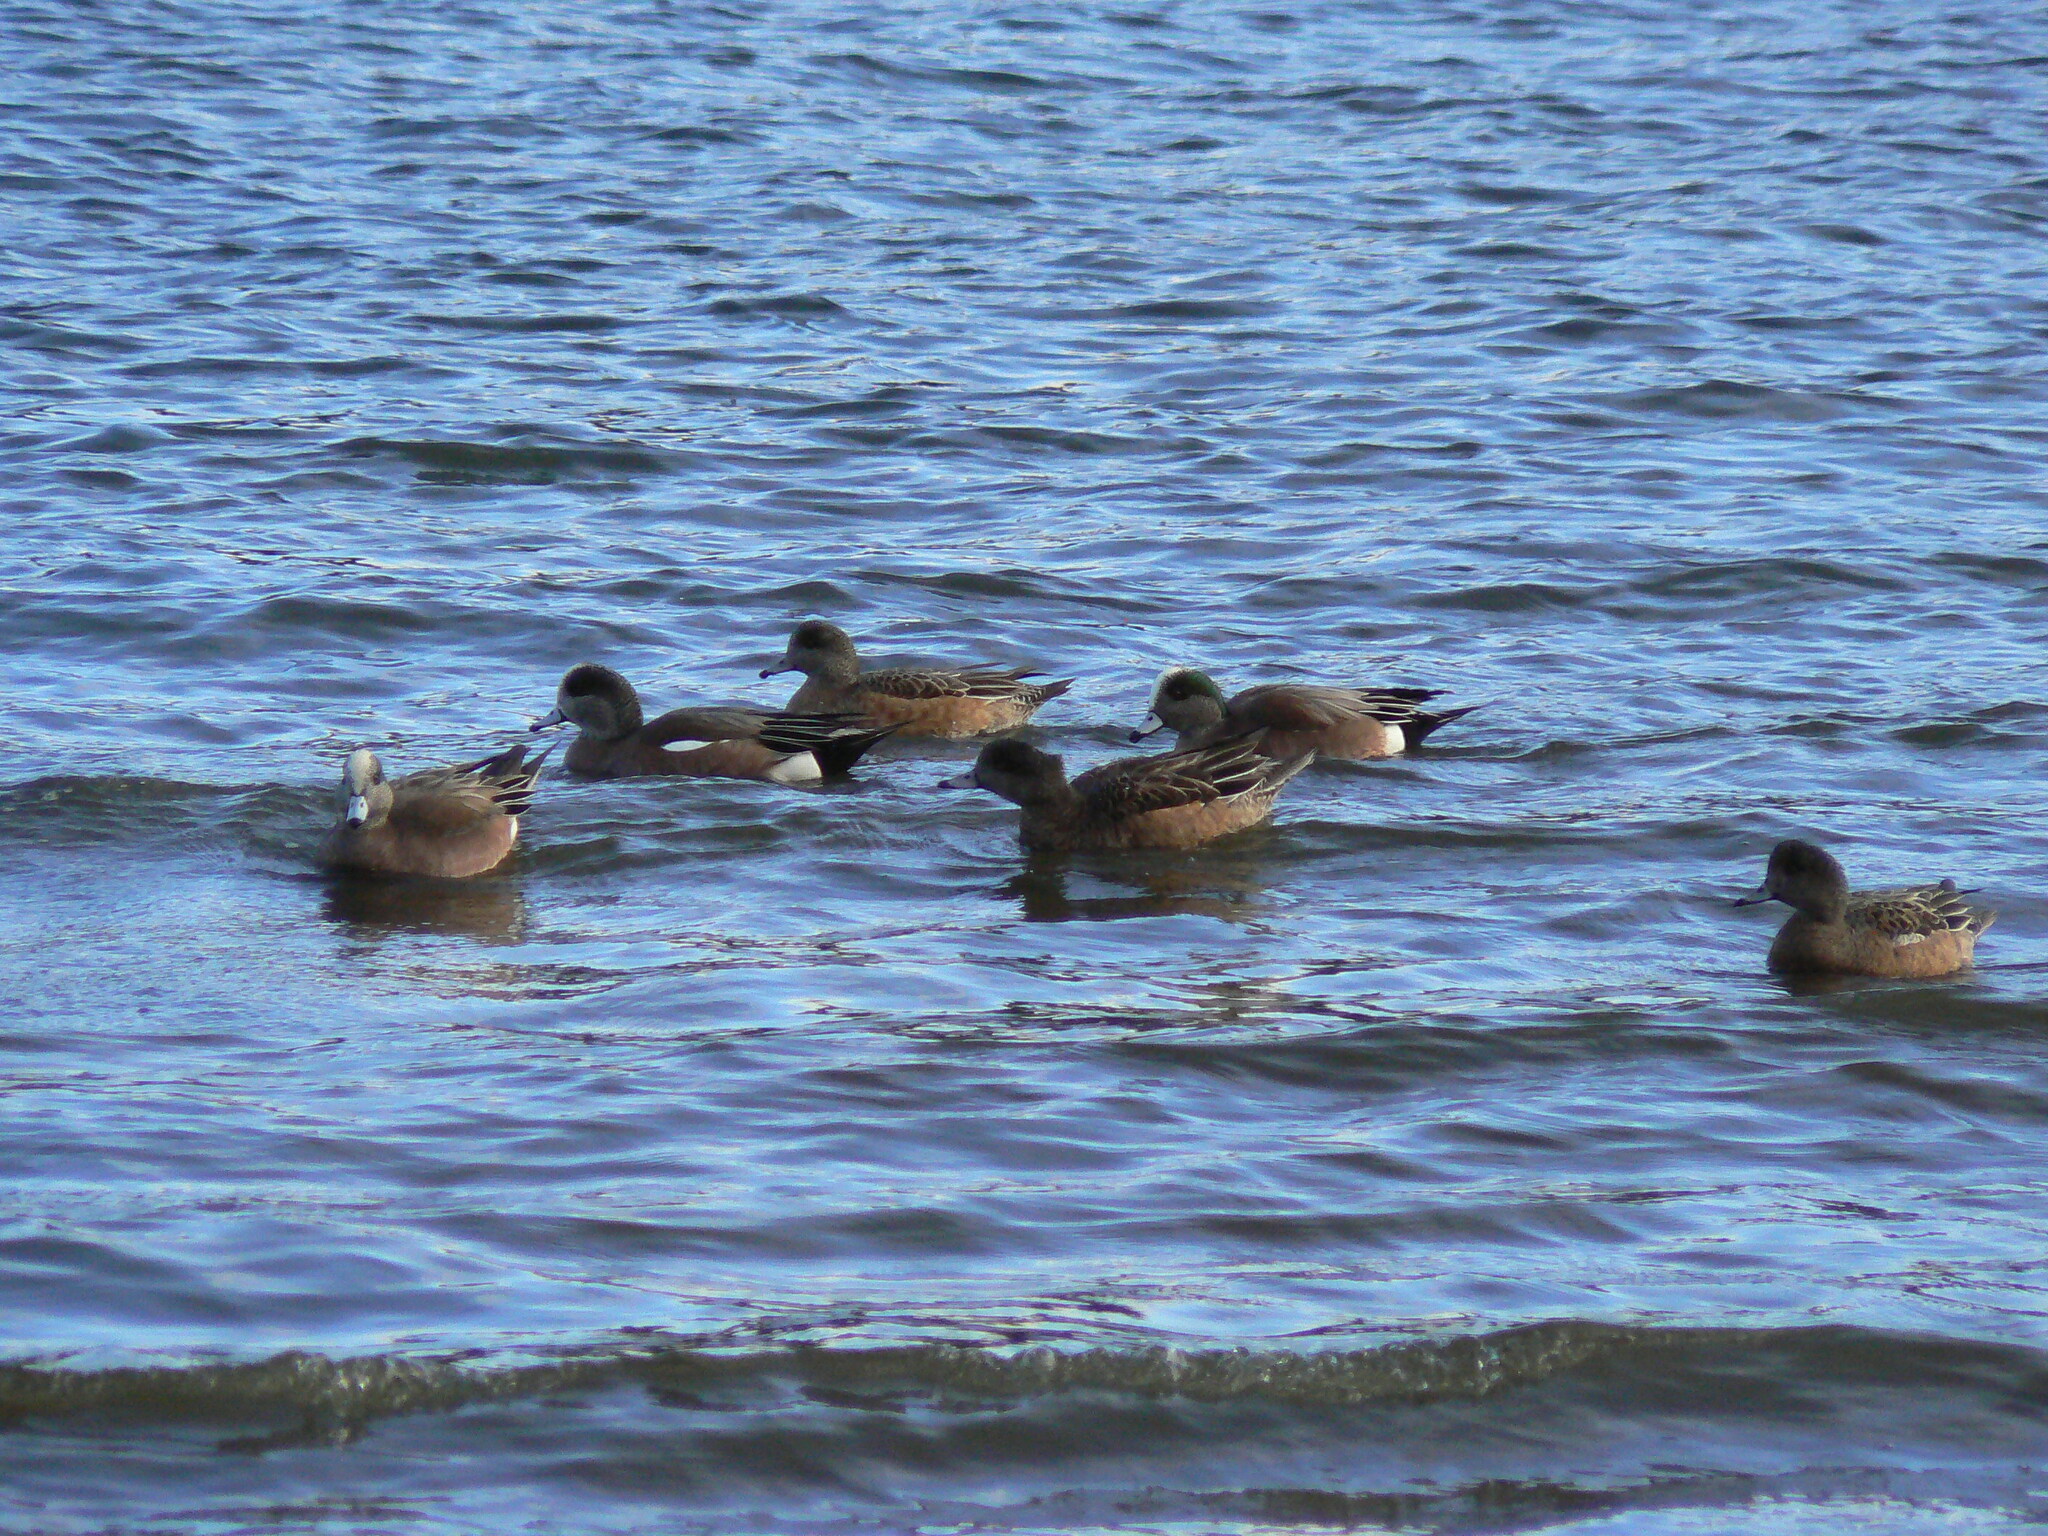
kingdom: Animalia
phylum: Chordata
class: Aves
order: Anseriformes
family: Anatidae
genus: Mareca
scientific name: Mareca americana
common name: American wigeon
